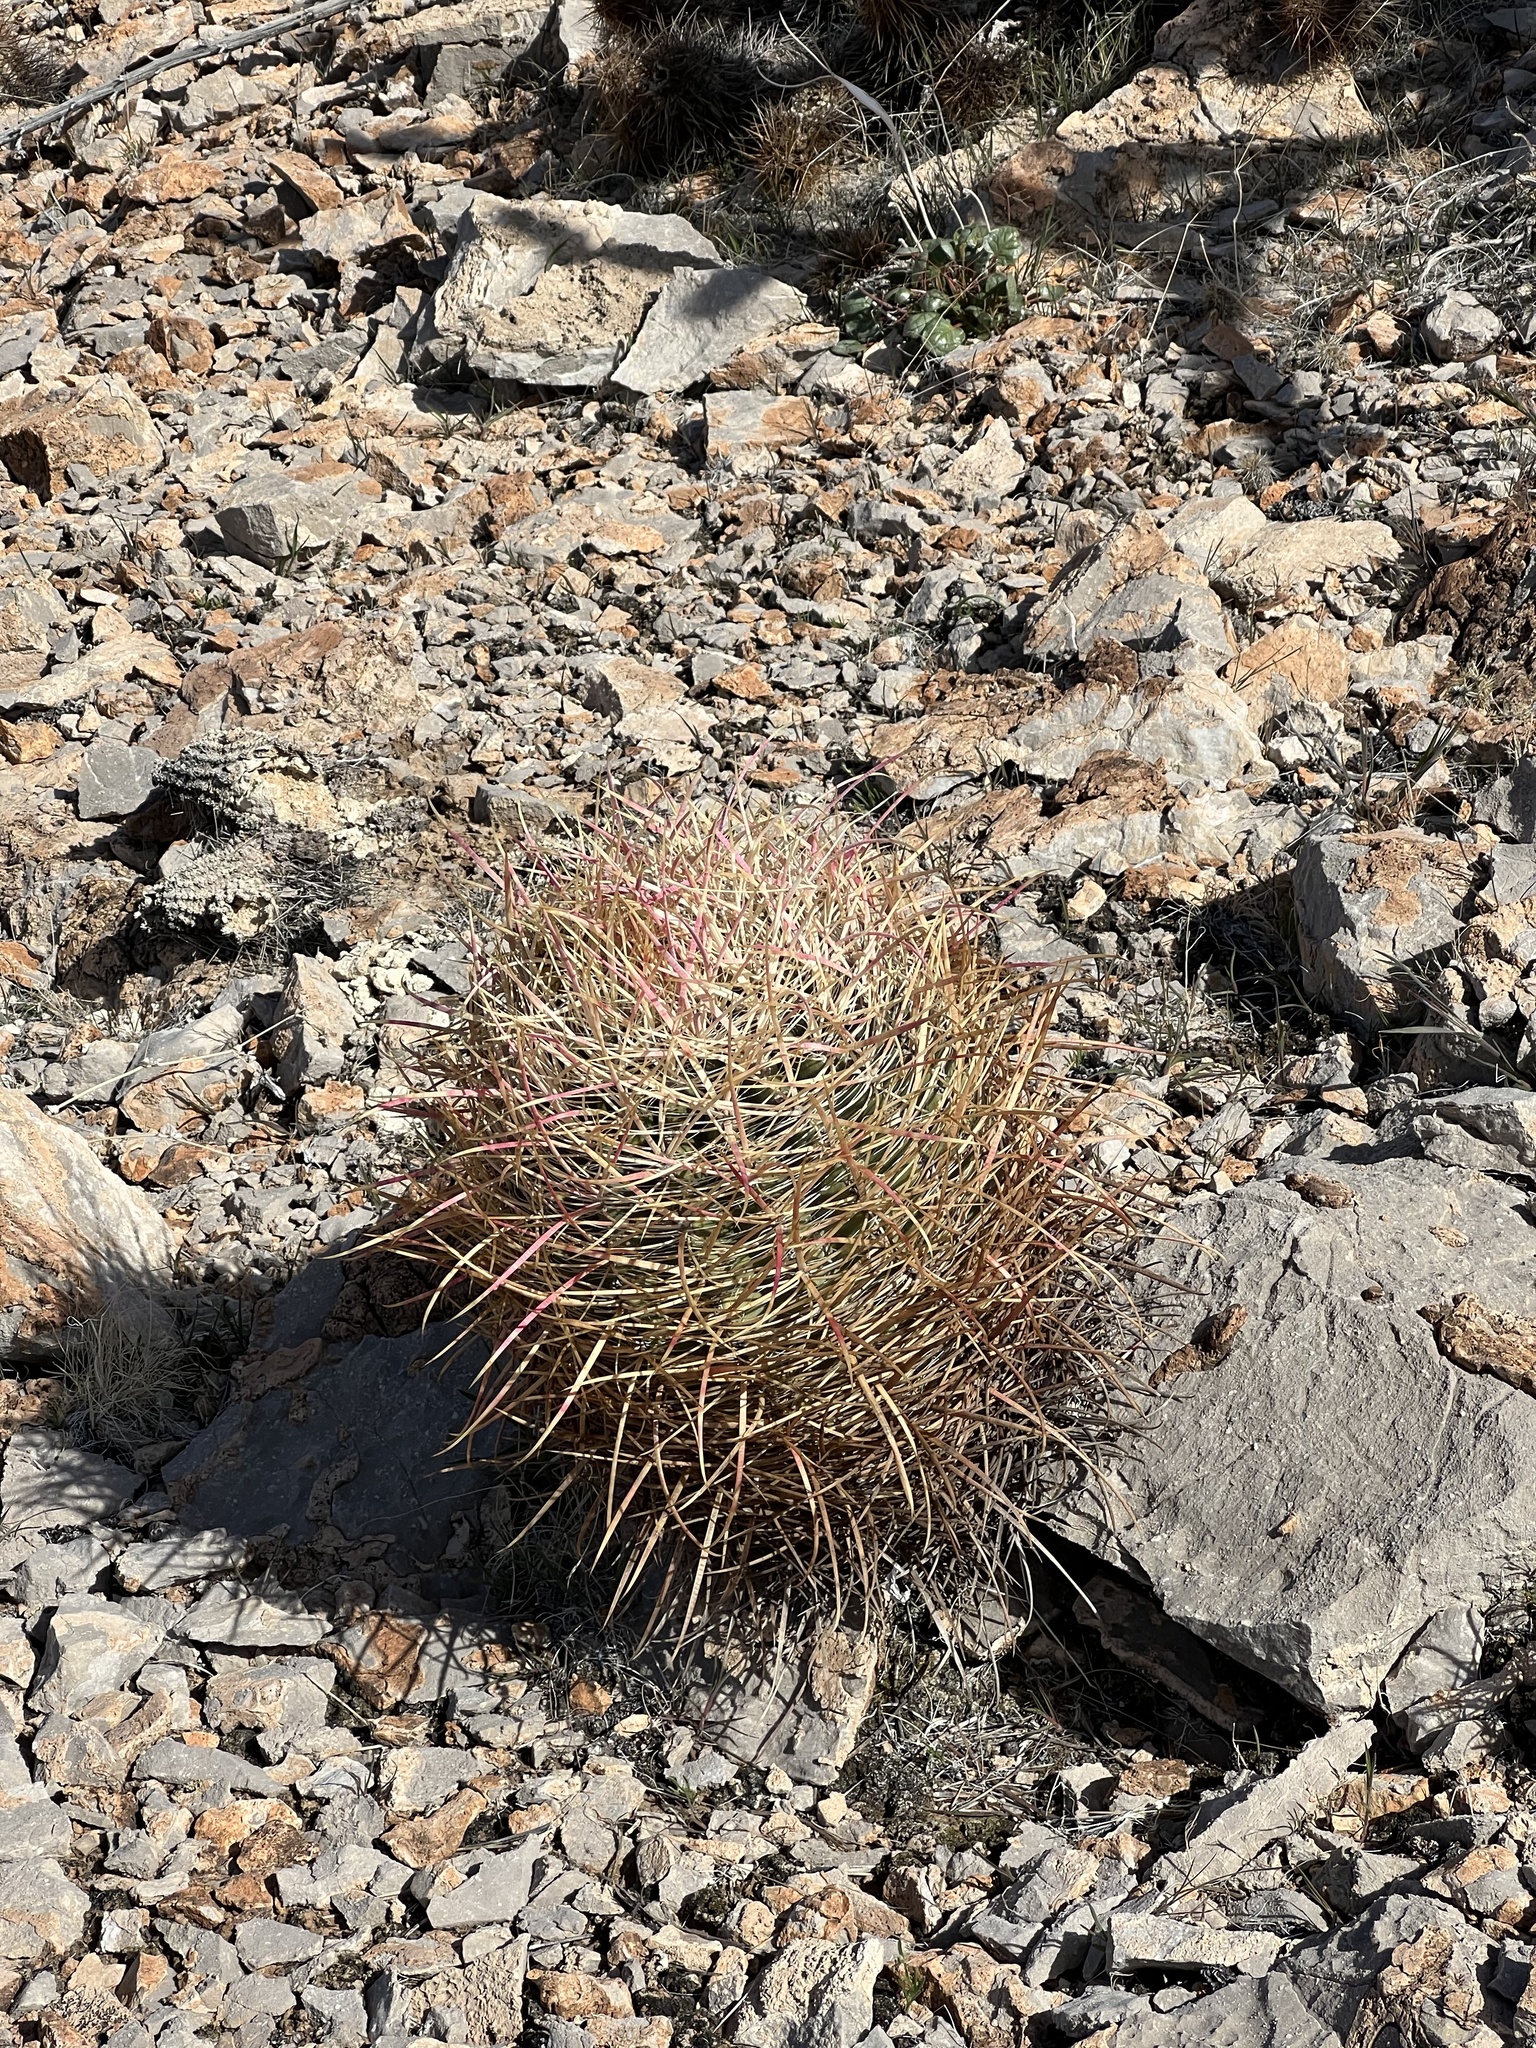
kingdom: Plantae
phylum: Tracheophyta
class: Magnoliopsida
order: Caryophyllales
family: Cactaceae
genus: Ferocactus
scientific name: Ferocactus cylindraceus
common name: California barrel cactus
